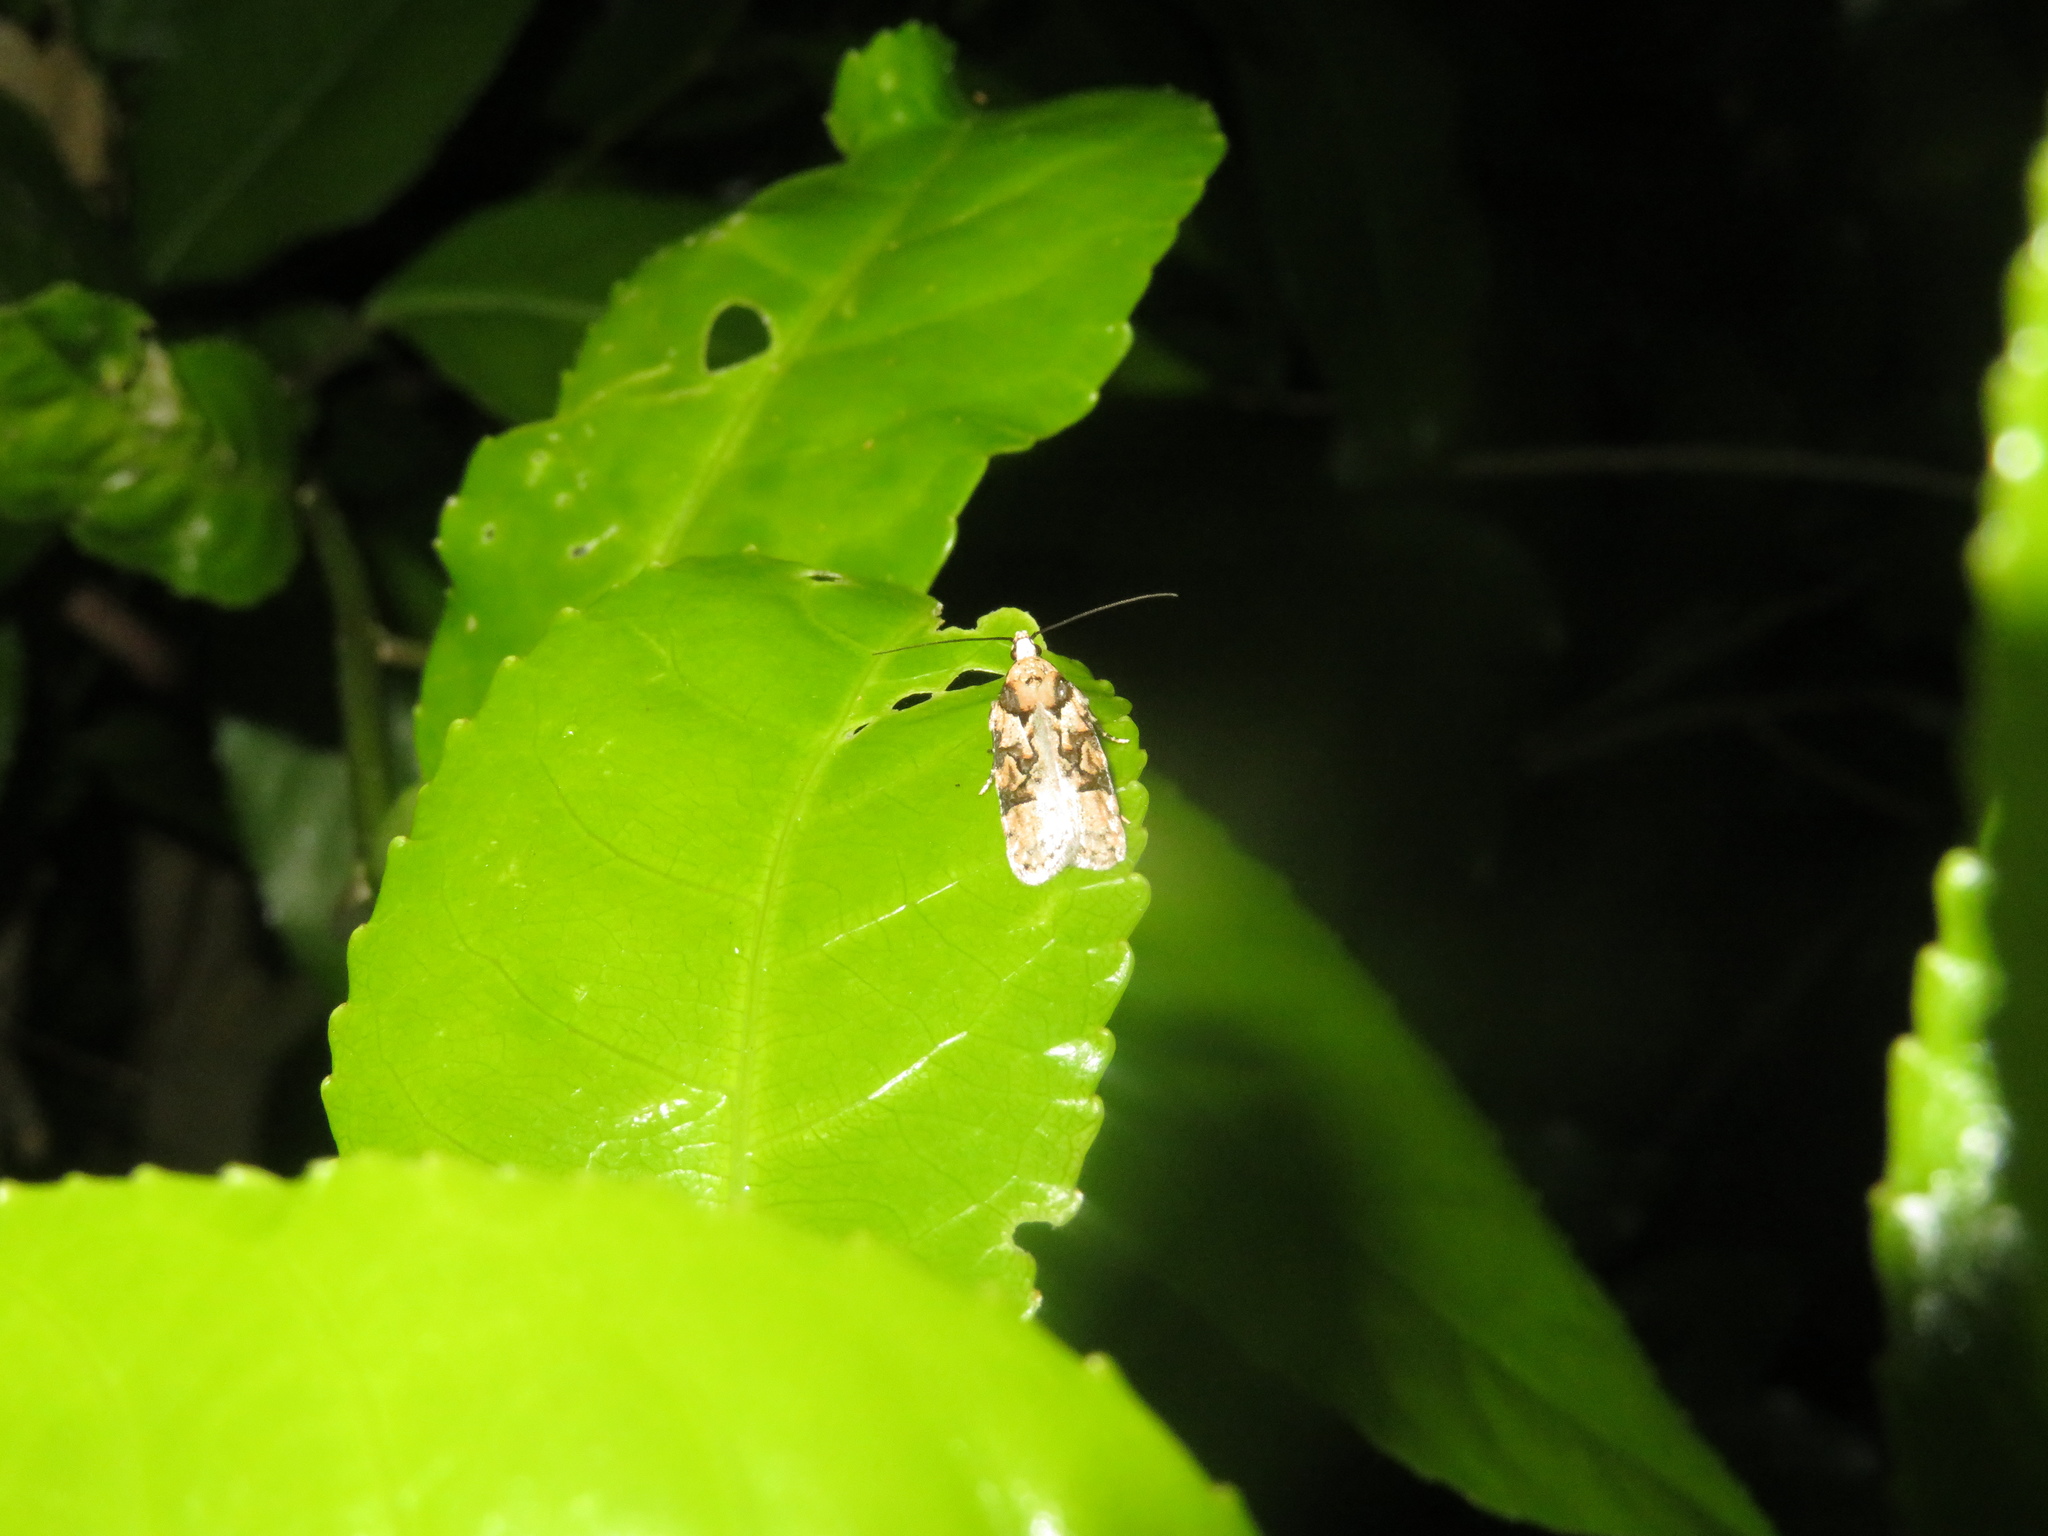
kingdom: Animalia
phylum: Arthropoda
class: Insecta
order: Lepidoptera
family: Oecophoridae
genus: Izatha
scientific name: Izatha epiphanes
